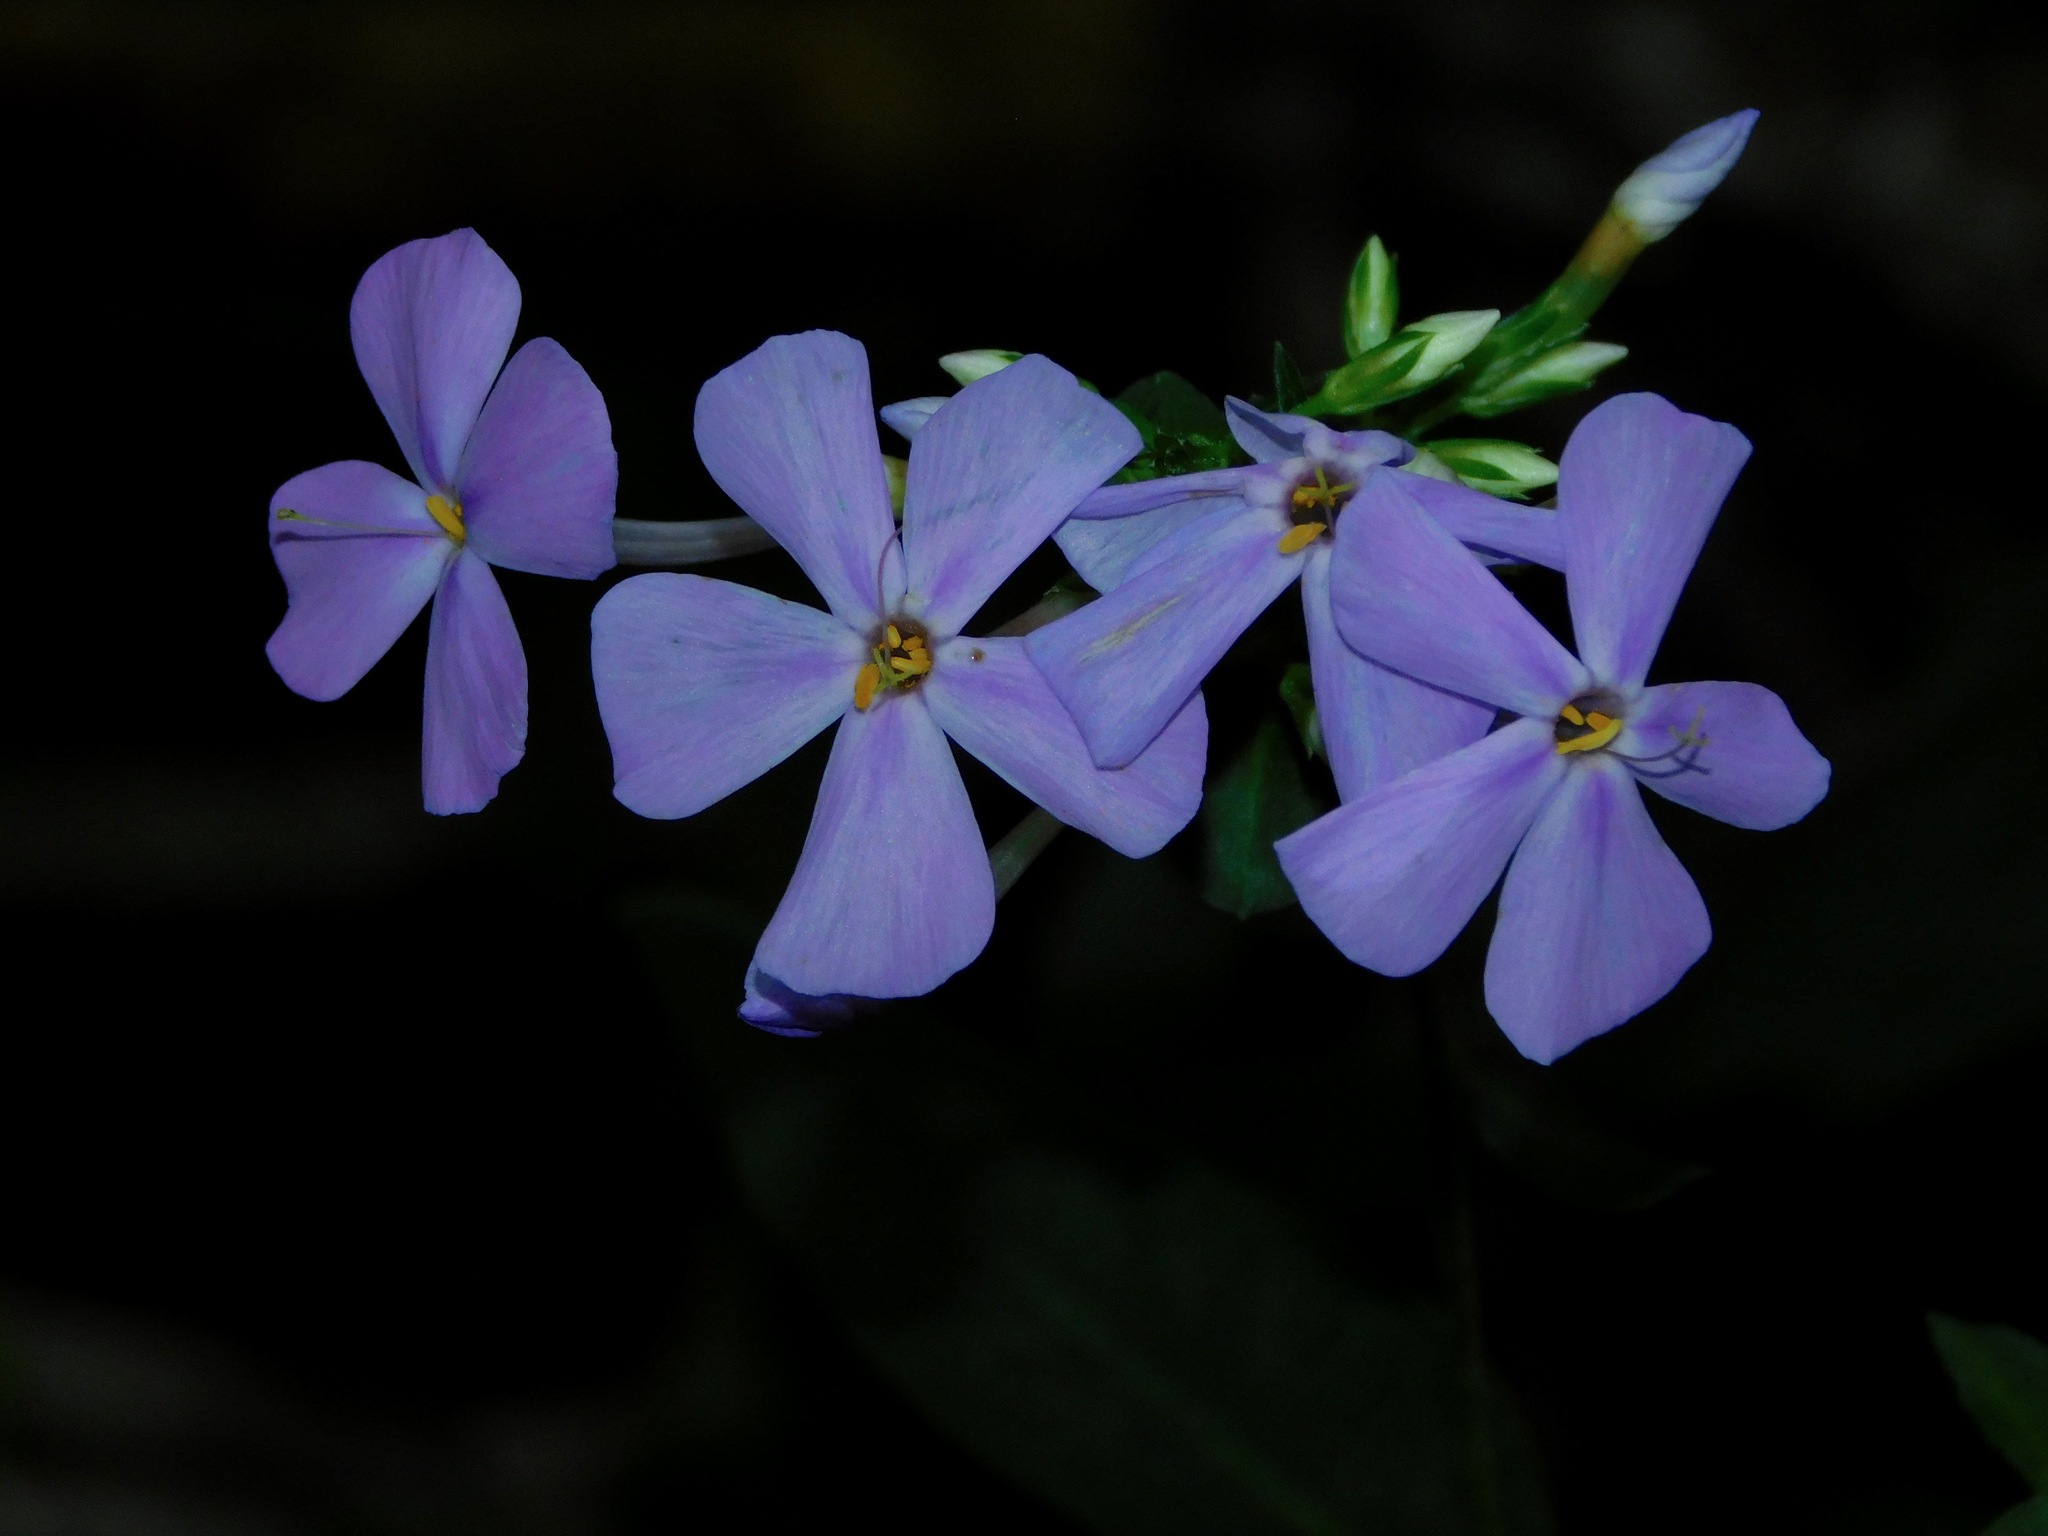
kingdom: Plantae
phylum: Tracheophyta
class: Magnoliopsida
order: Ericales
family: Polemoniaceae
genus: Phlox
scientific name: Phlox carolina
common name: Thick-leaf phlox
